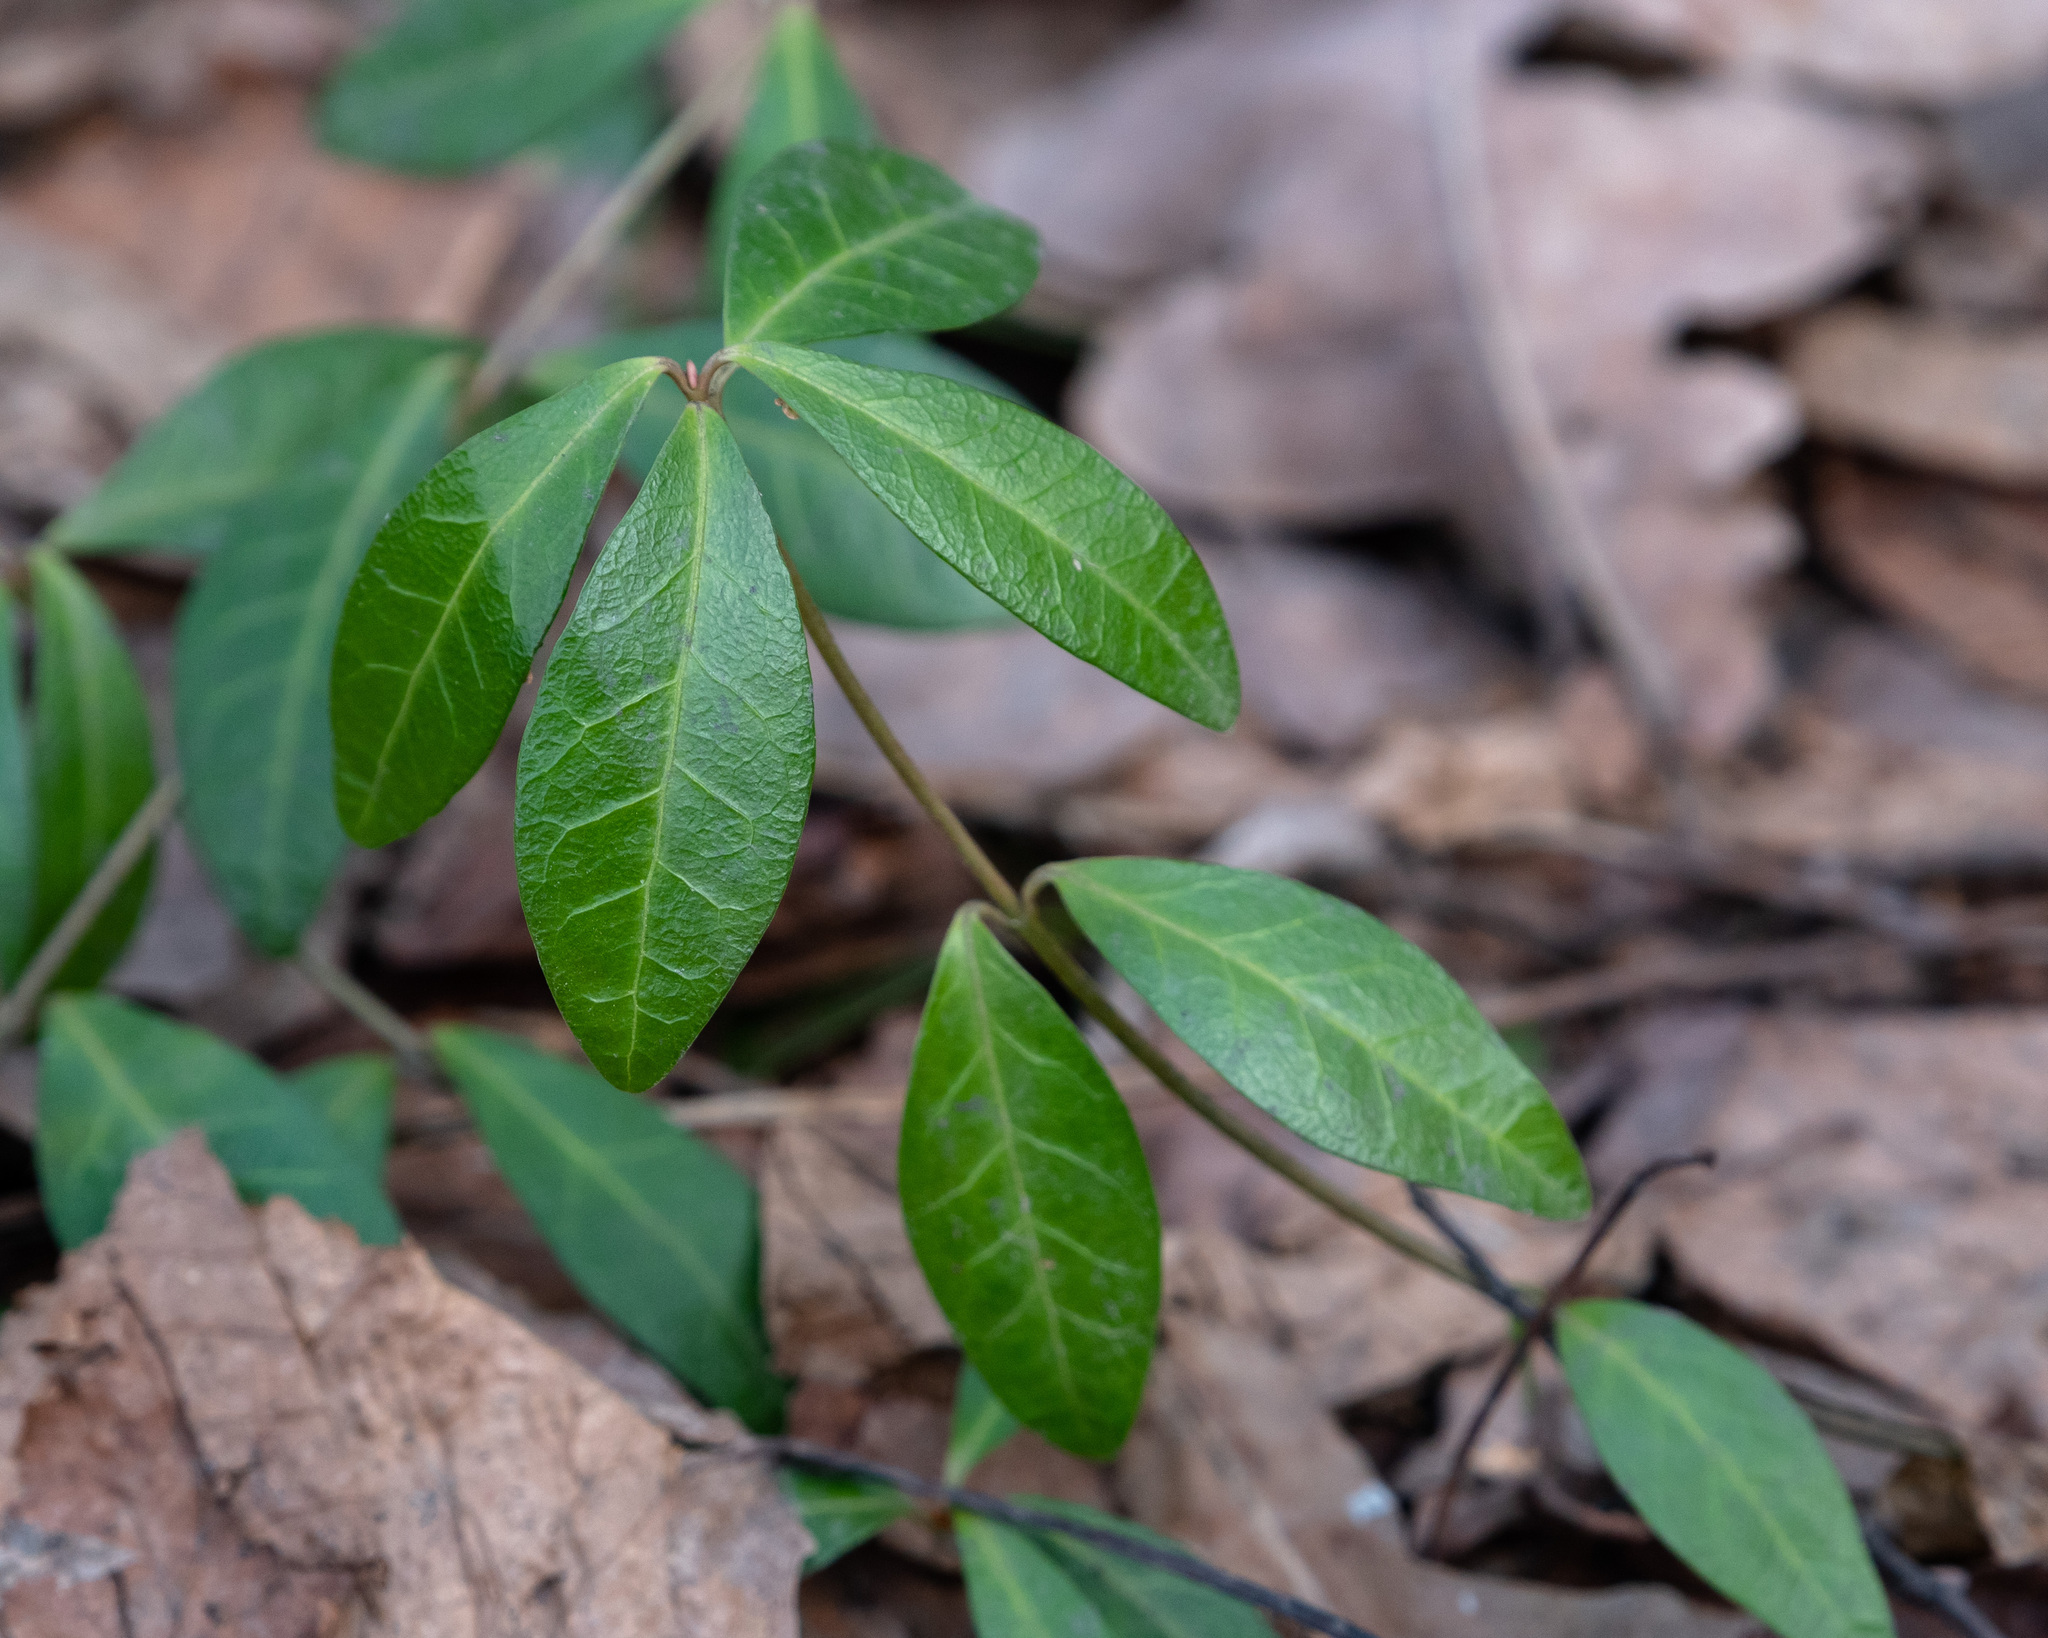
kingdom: Plantae
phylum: Tracheophyta
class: Magnoliopsida
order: Gentianales
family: Apocynaceae
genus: Vinca
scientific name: Vinca minor
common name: Lesser periwinkle
